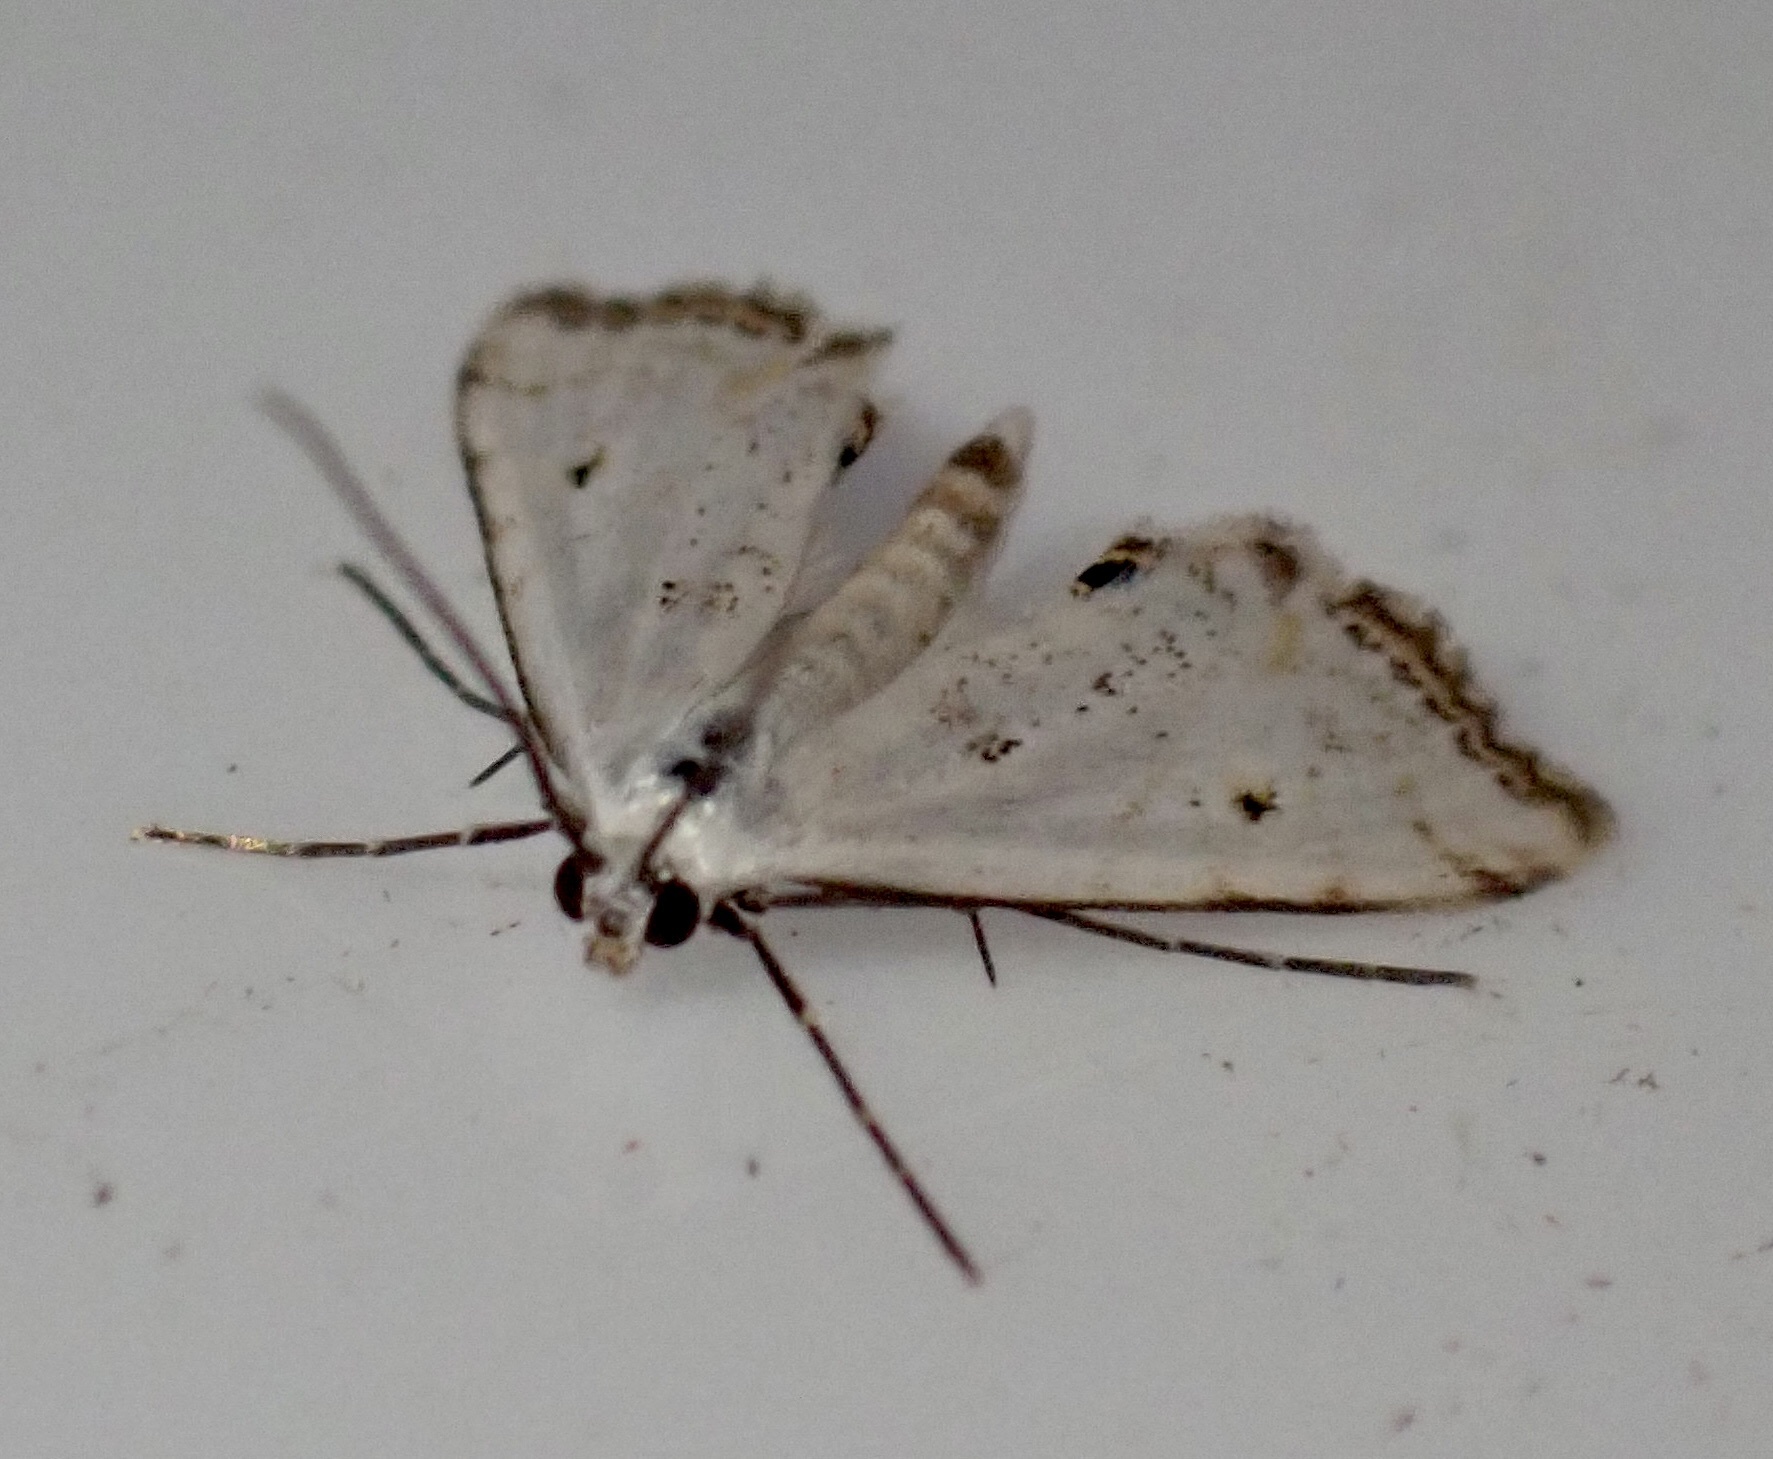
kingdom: Animalia
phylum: Arthropoda
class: Insecta
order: Lepidoptera
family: Crambidae
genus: Cataclysta
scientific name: Cataclysta lemnata
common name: Small china-mark
